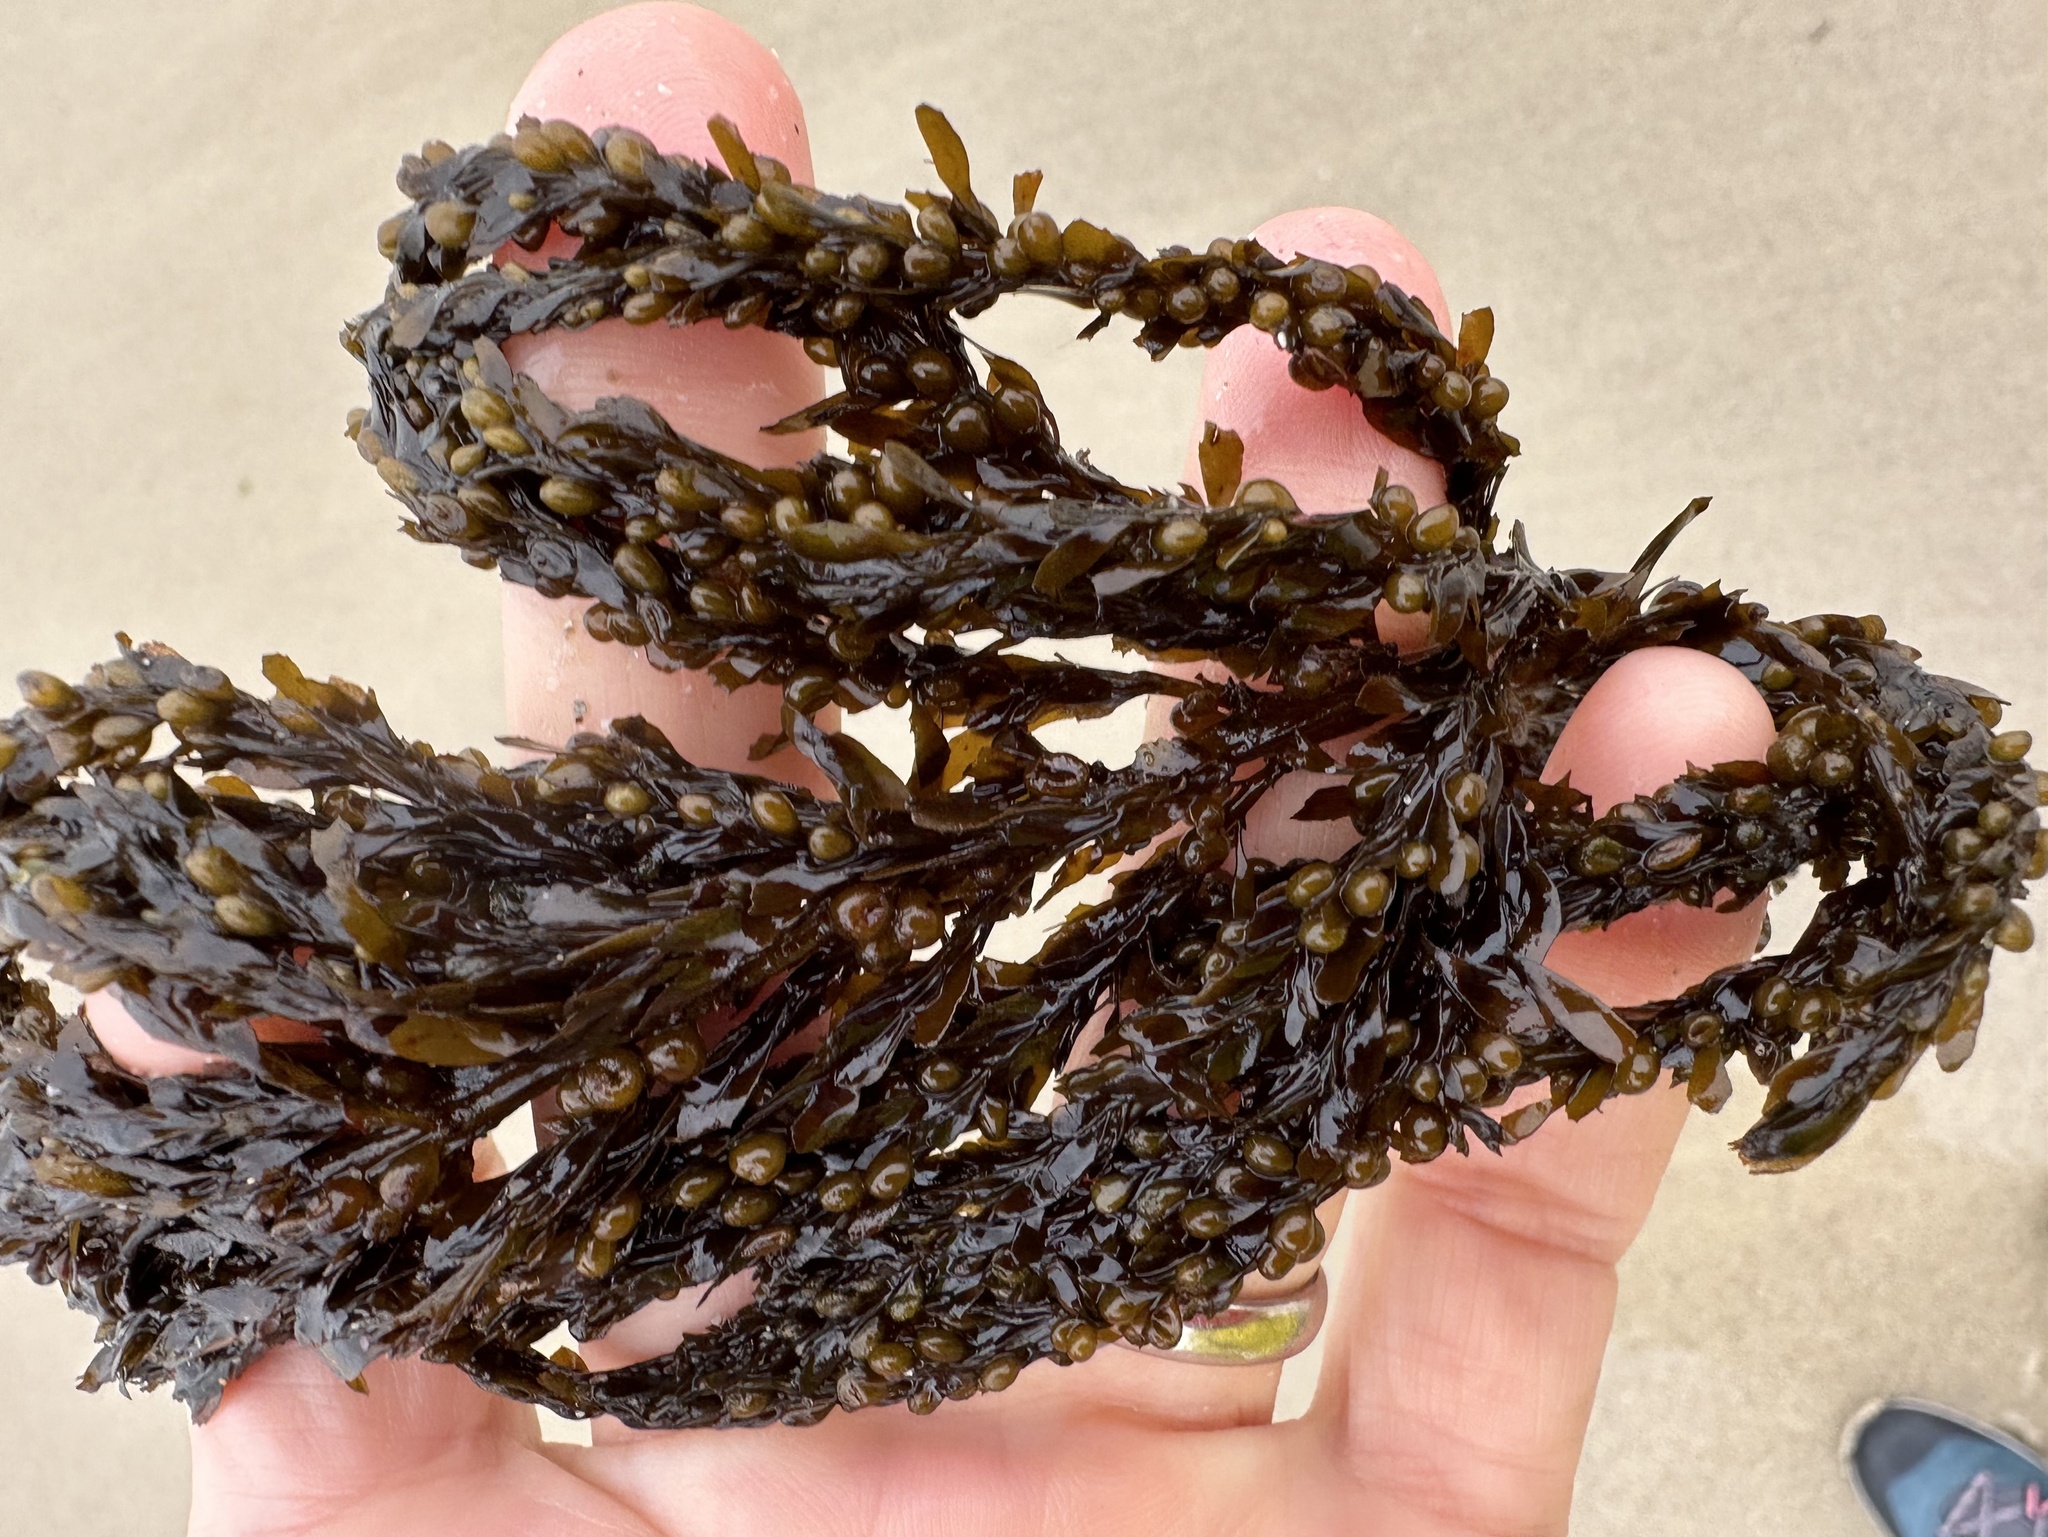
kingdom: Chromista
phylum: Ochrophyta
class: Phaeophyceae
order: Fucales
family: Sargassaceae
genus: Sargassum
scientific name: Sargassum muticum
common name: Japweed
